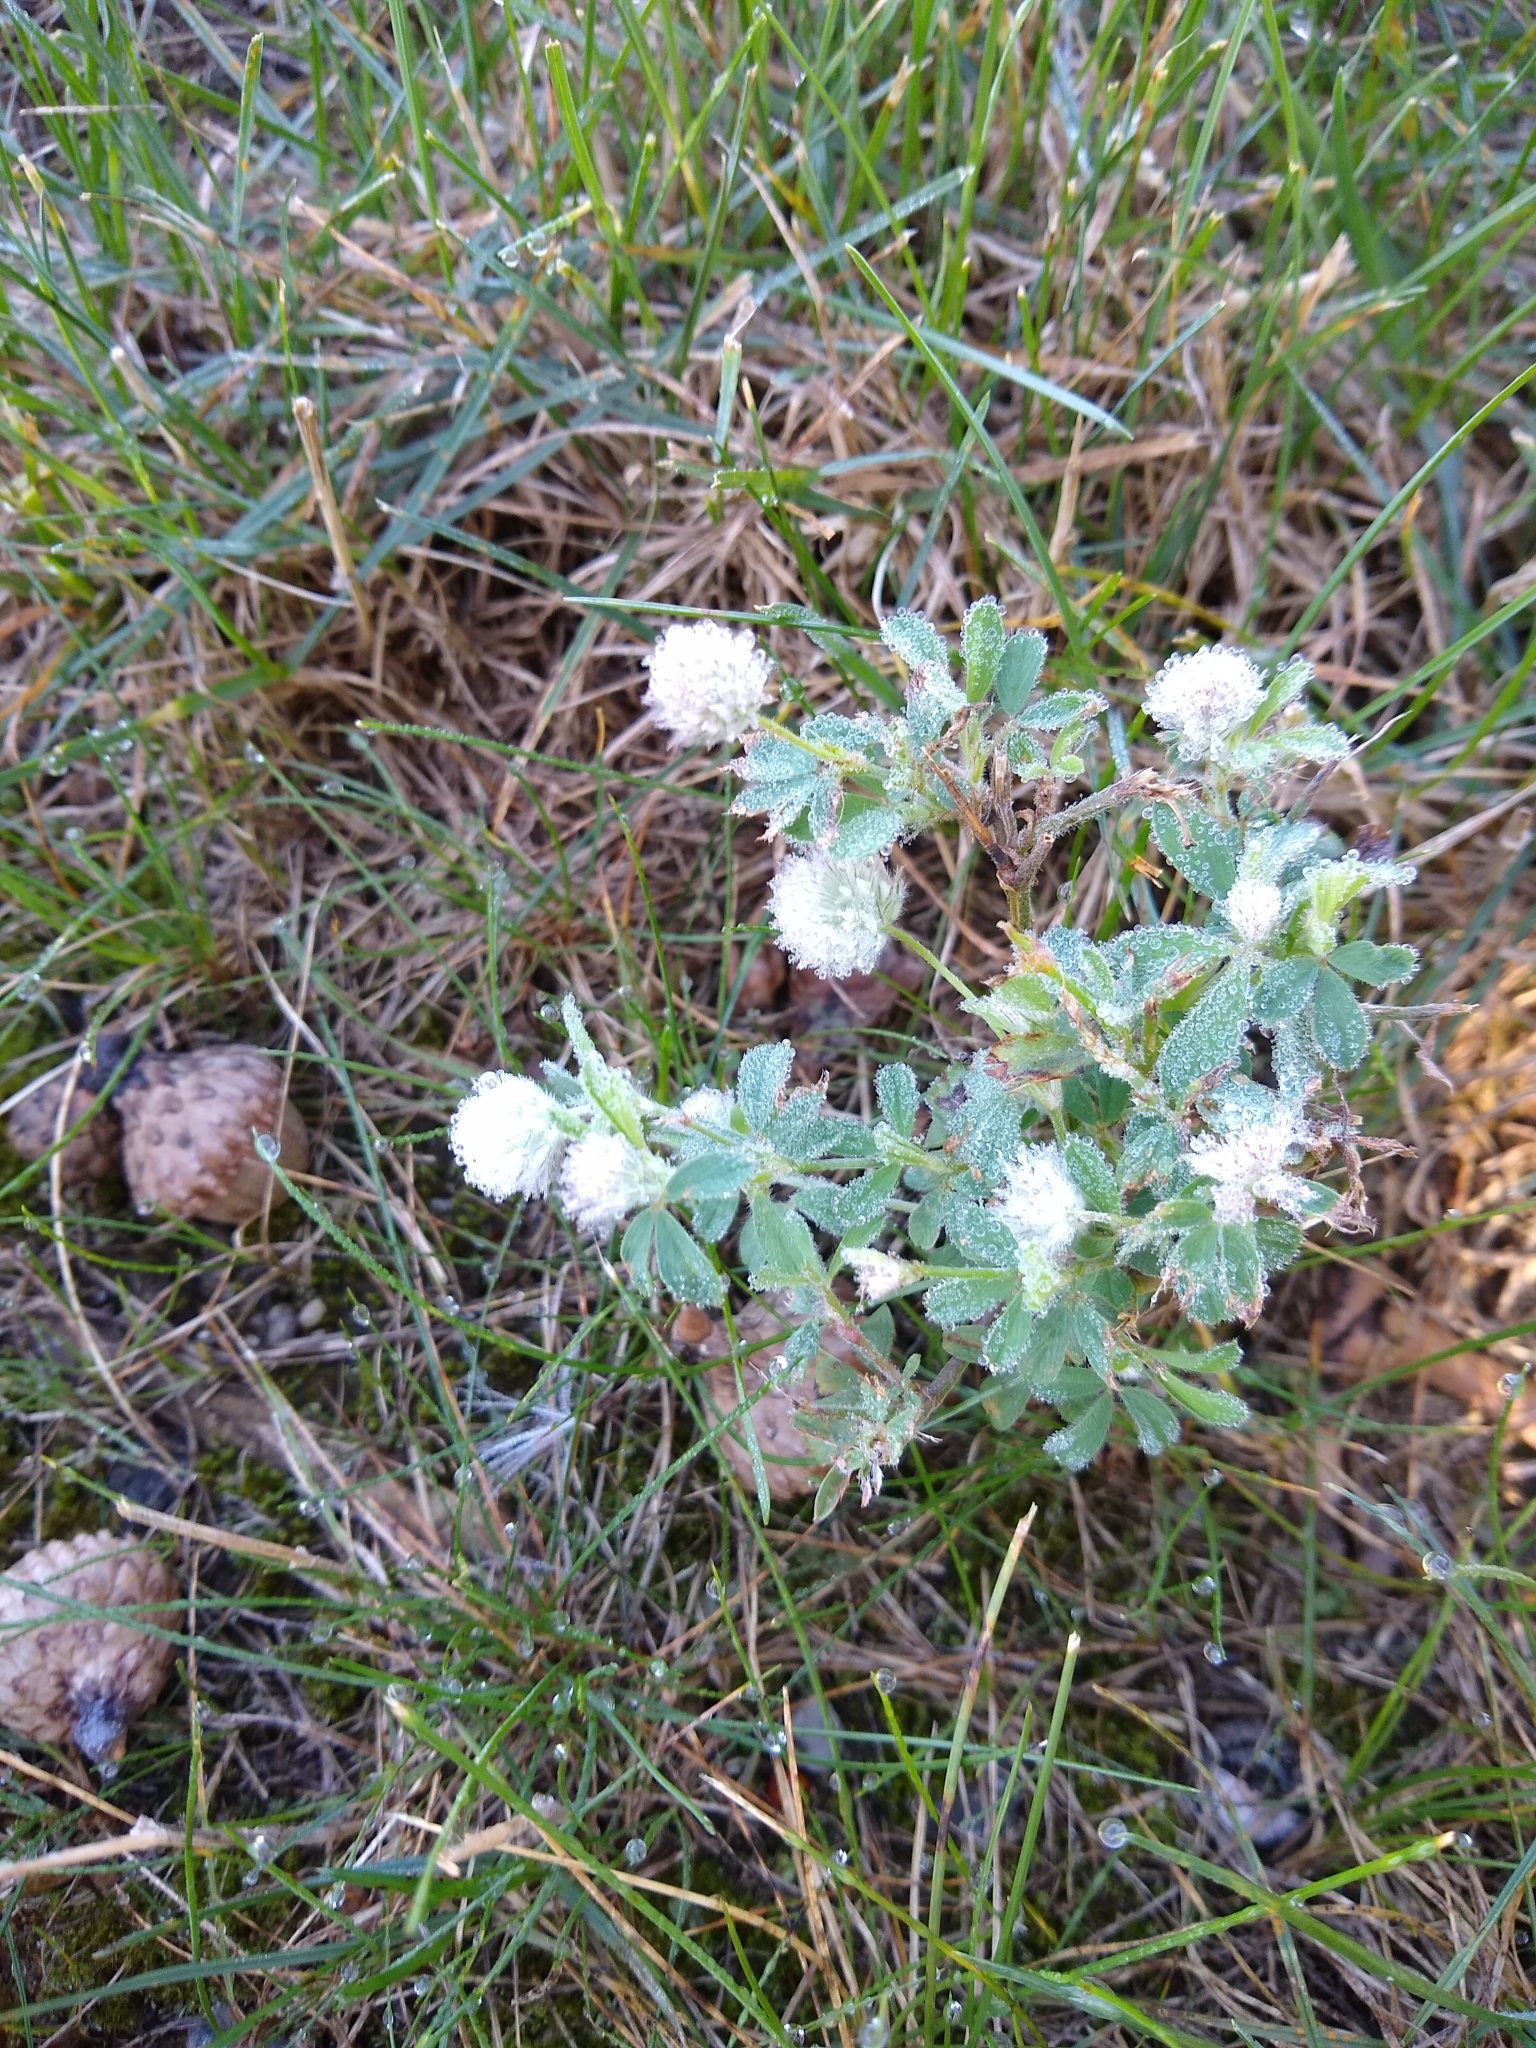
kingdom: Plantae
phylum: Tracheophyta
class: Magnoliopsida
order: Fabales
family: Fabaceae
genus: Trifolium
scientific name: Trifolium arvense
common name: Hare's-foot clover
